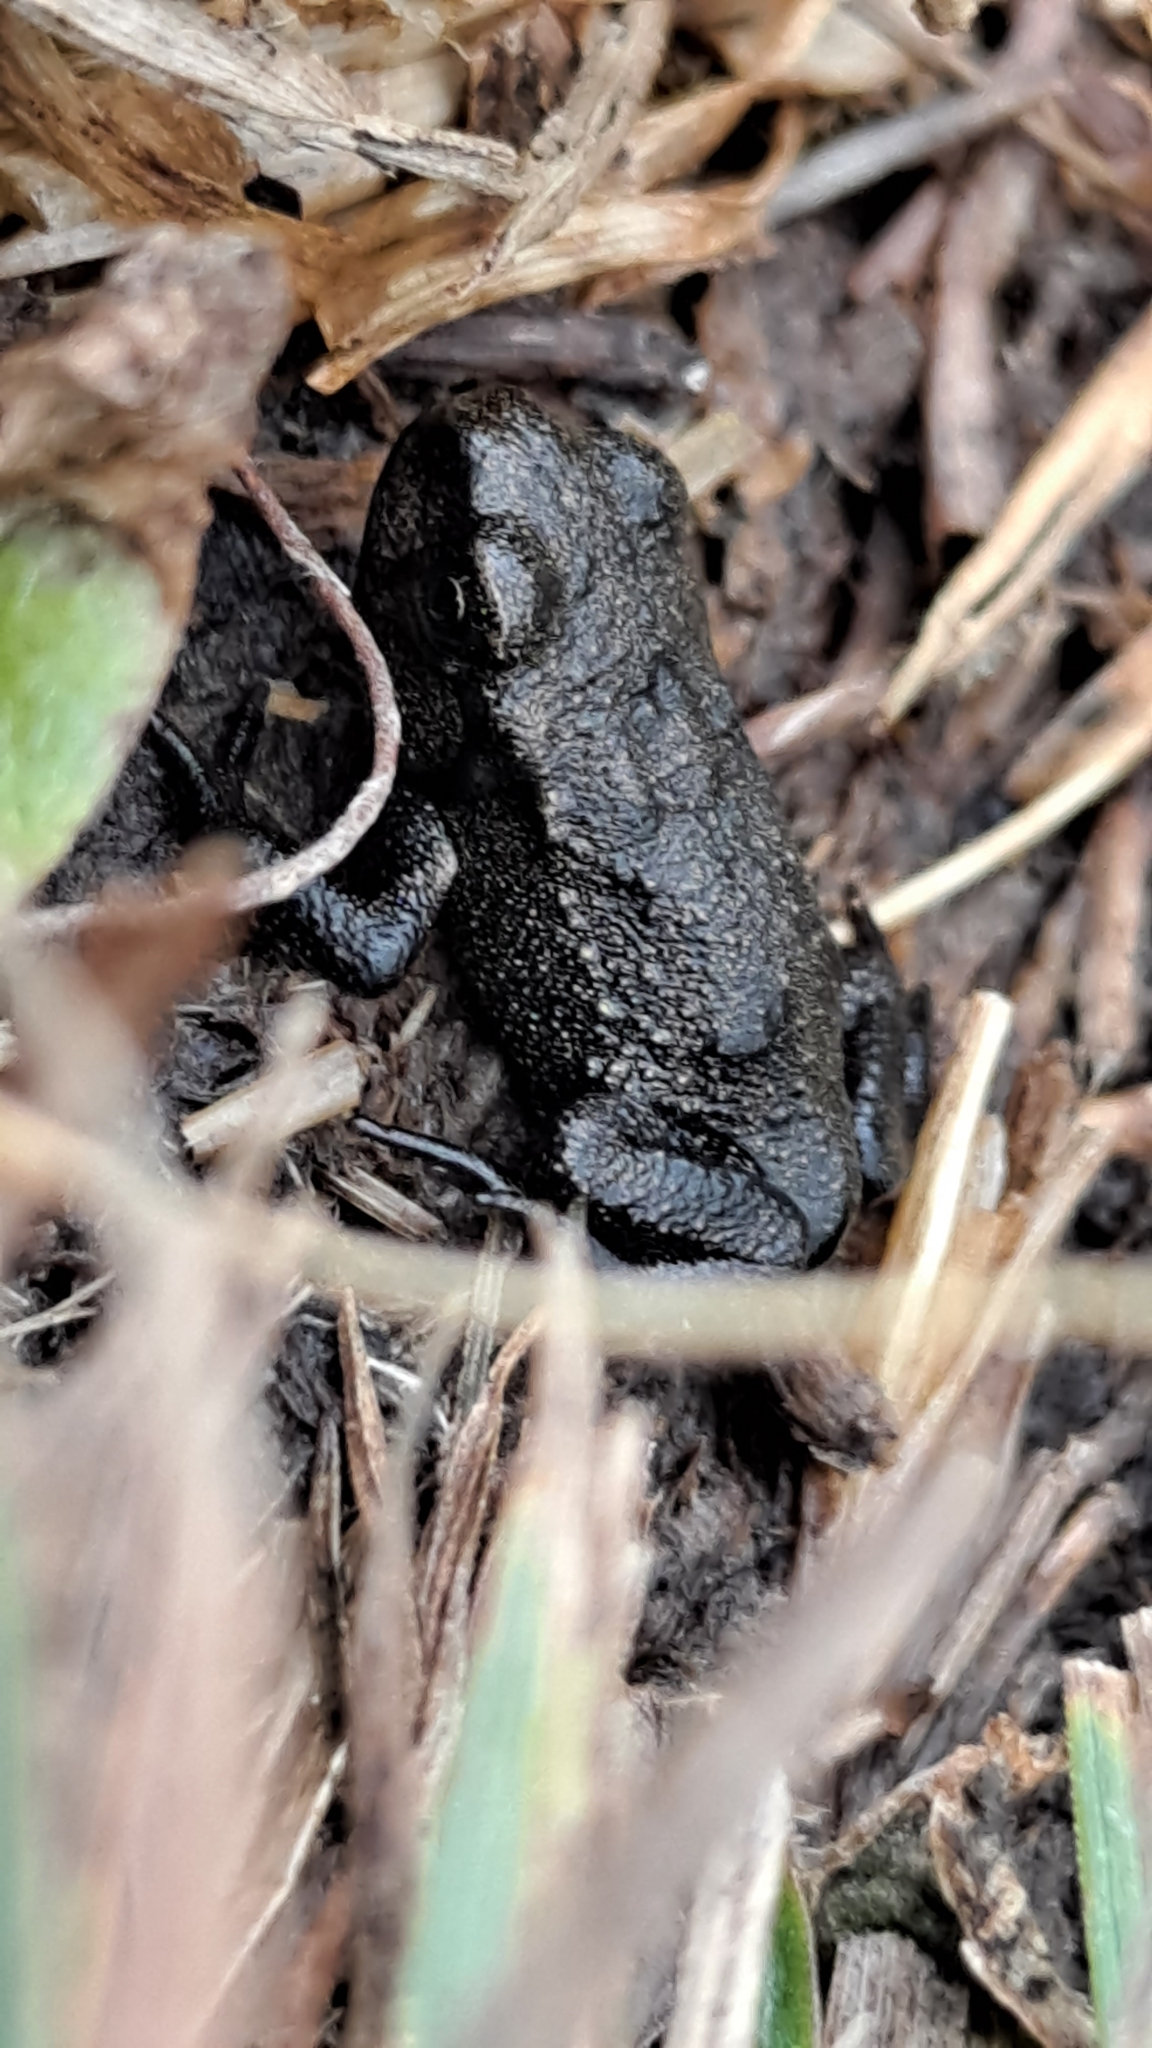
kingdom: Animalia
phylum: Chordata
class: Amphibia
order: Anura
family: Bufonidae
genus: Bufo
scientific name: Bufo spinosus
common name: Western common toad
